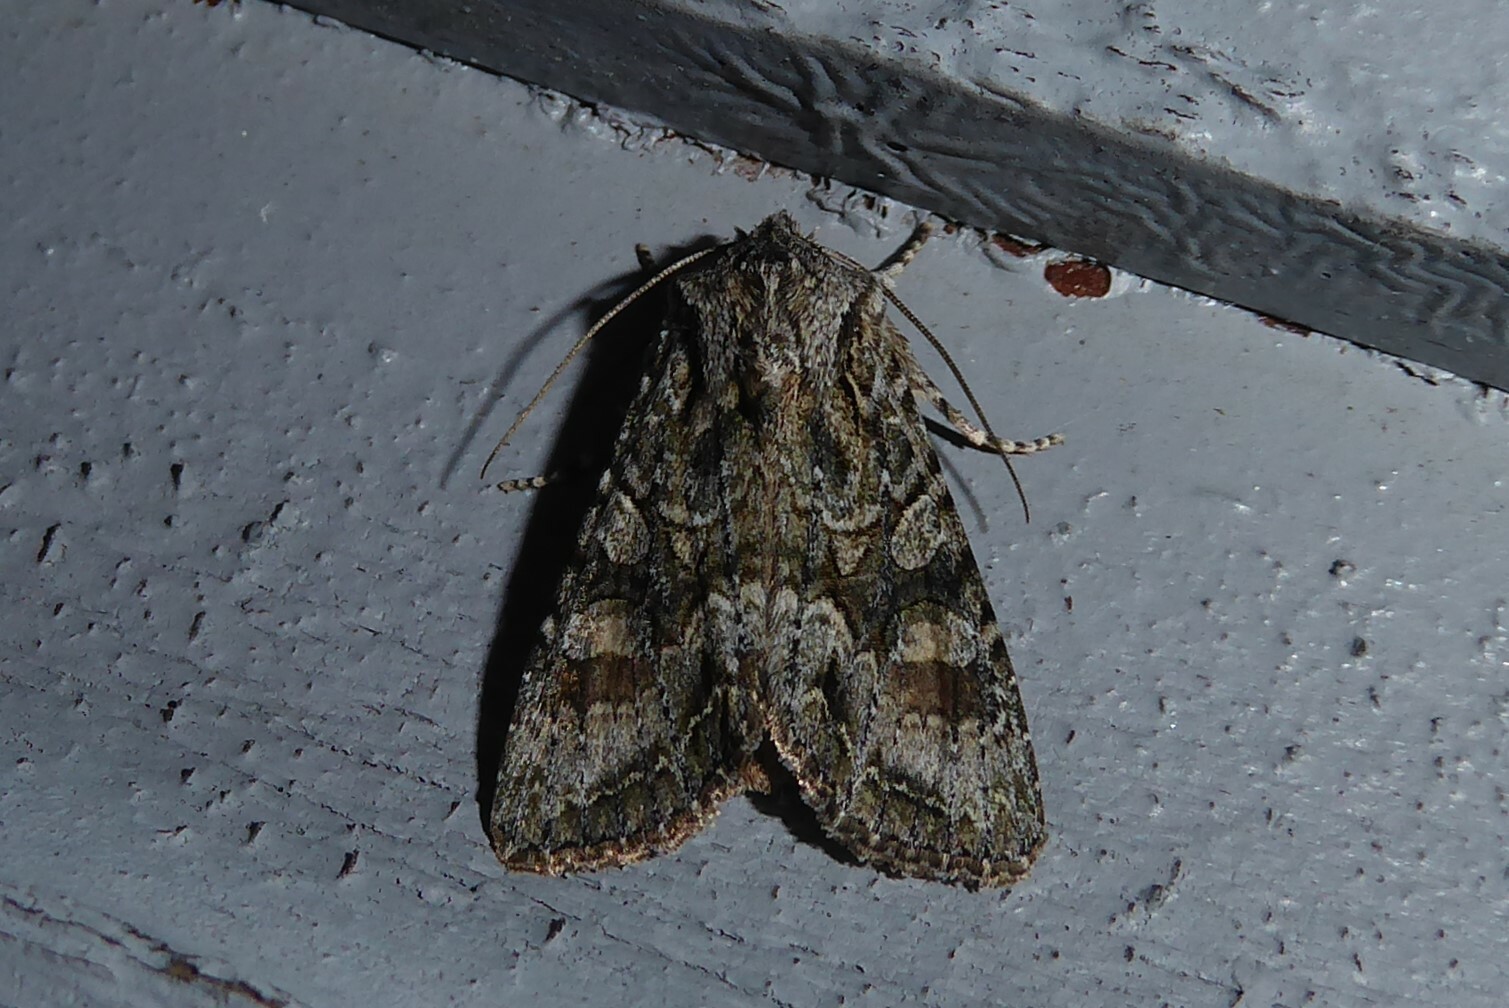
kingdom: Animalia
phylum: Arthropoda
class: Insecta
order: Lepidoptera
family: Noctuidae
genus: Ichneutica
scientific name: Ichneutica mutans
